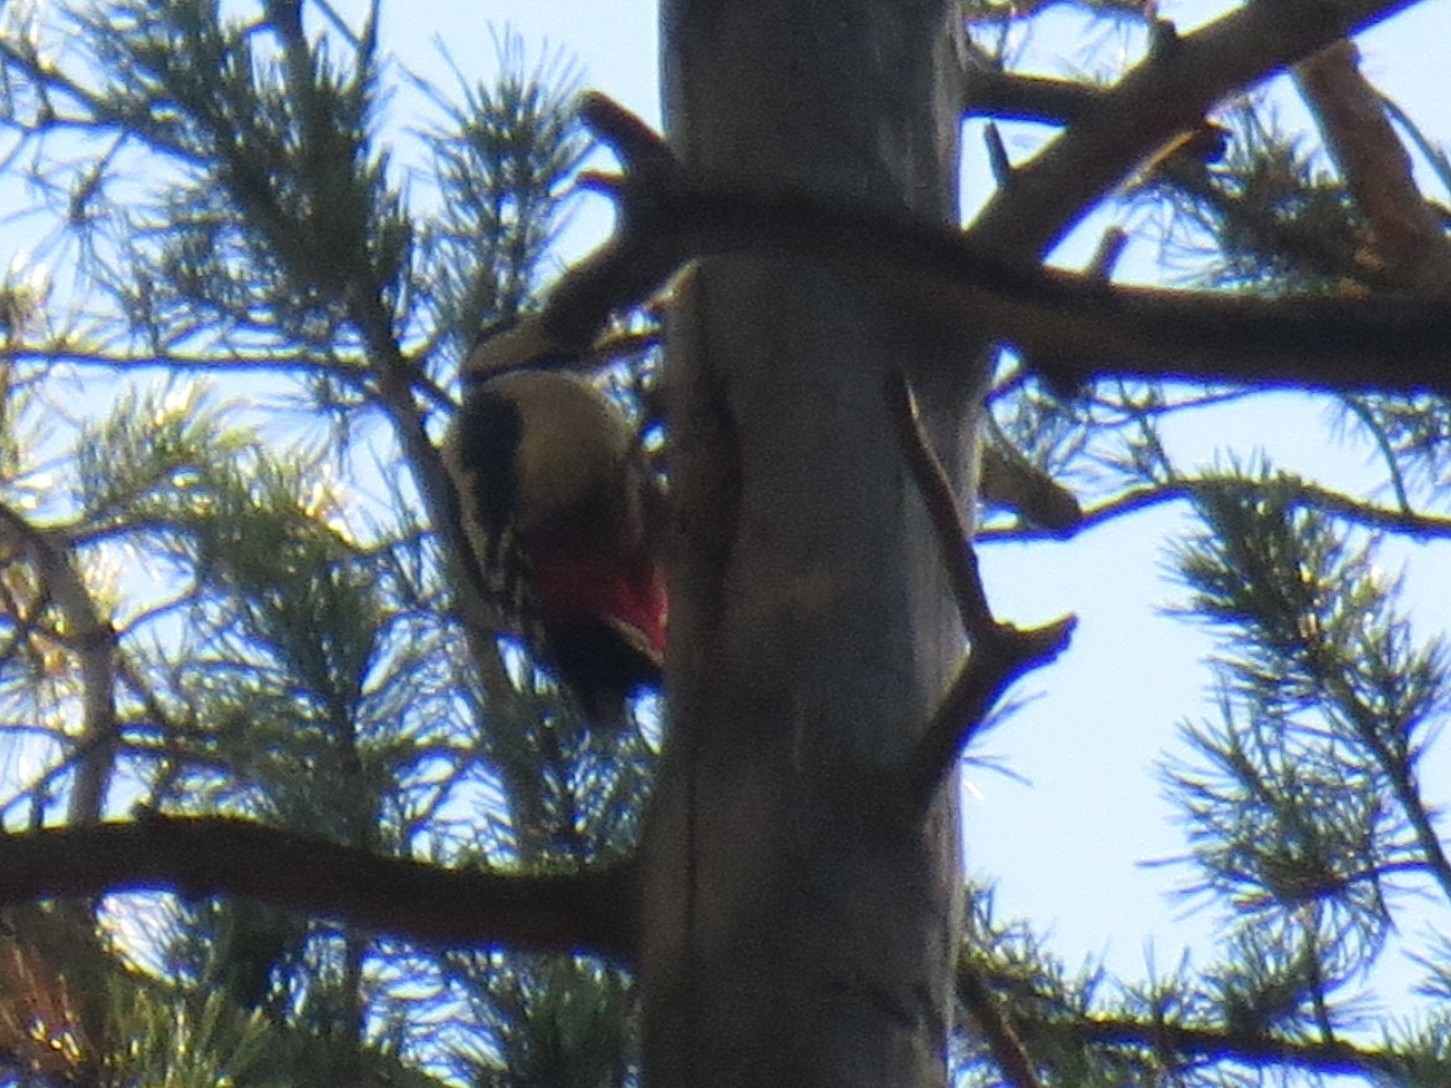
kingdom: Animalia
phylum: Chordata
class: Aves
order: Piciformes
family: Picidae
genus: Dendrocopos
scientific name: Dendrocopos major
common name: Great spotted woodpecker
